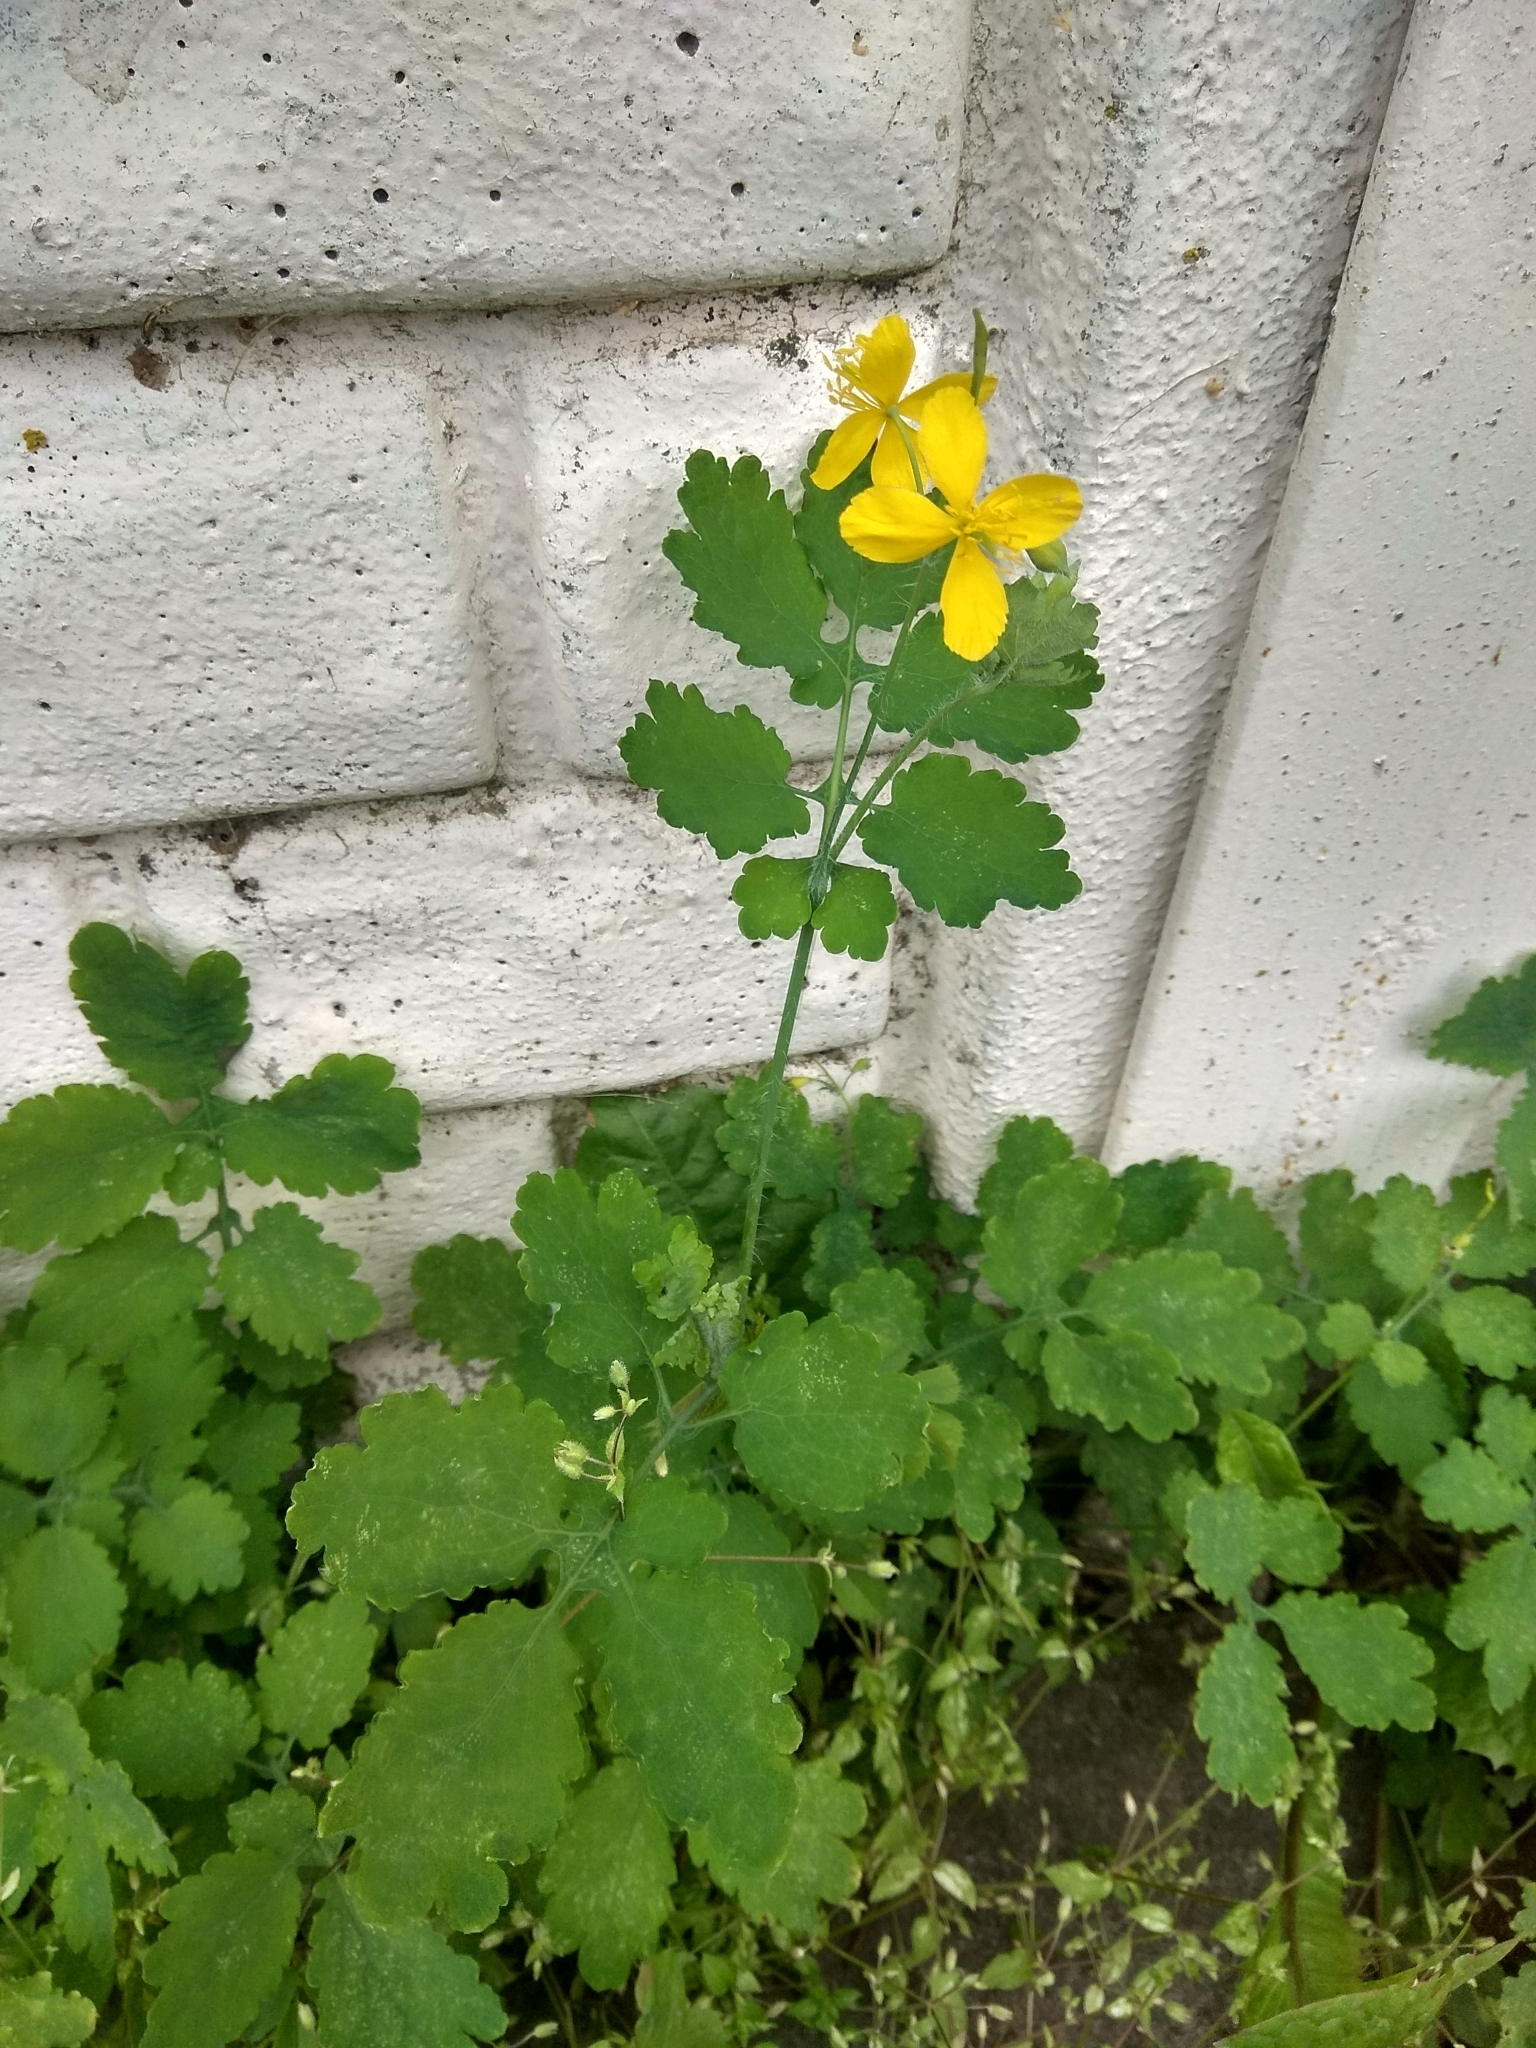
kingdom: Plantae
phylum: Tracheophyta
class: Magnoliopsida
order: Ranunculales
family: Papaveraceae
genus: Chelidonium
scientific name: Chelidonium majus
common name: Greater celandine
